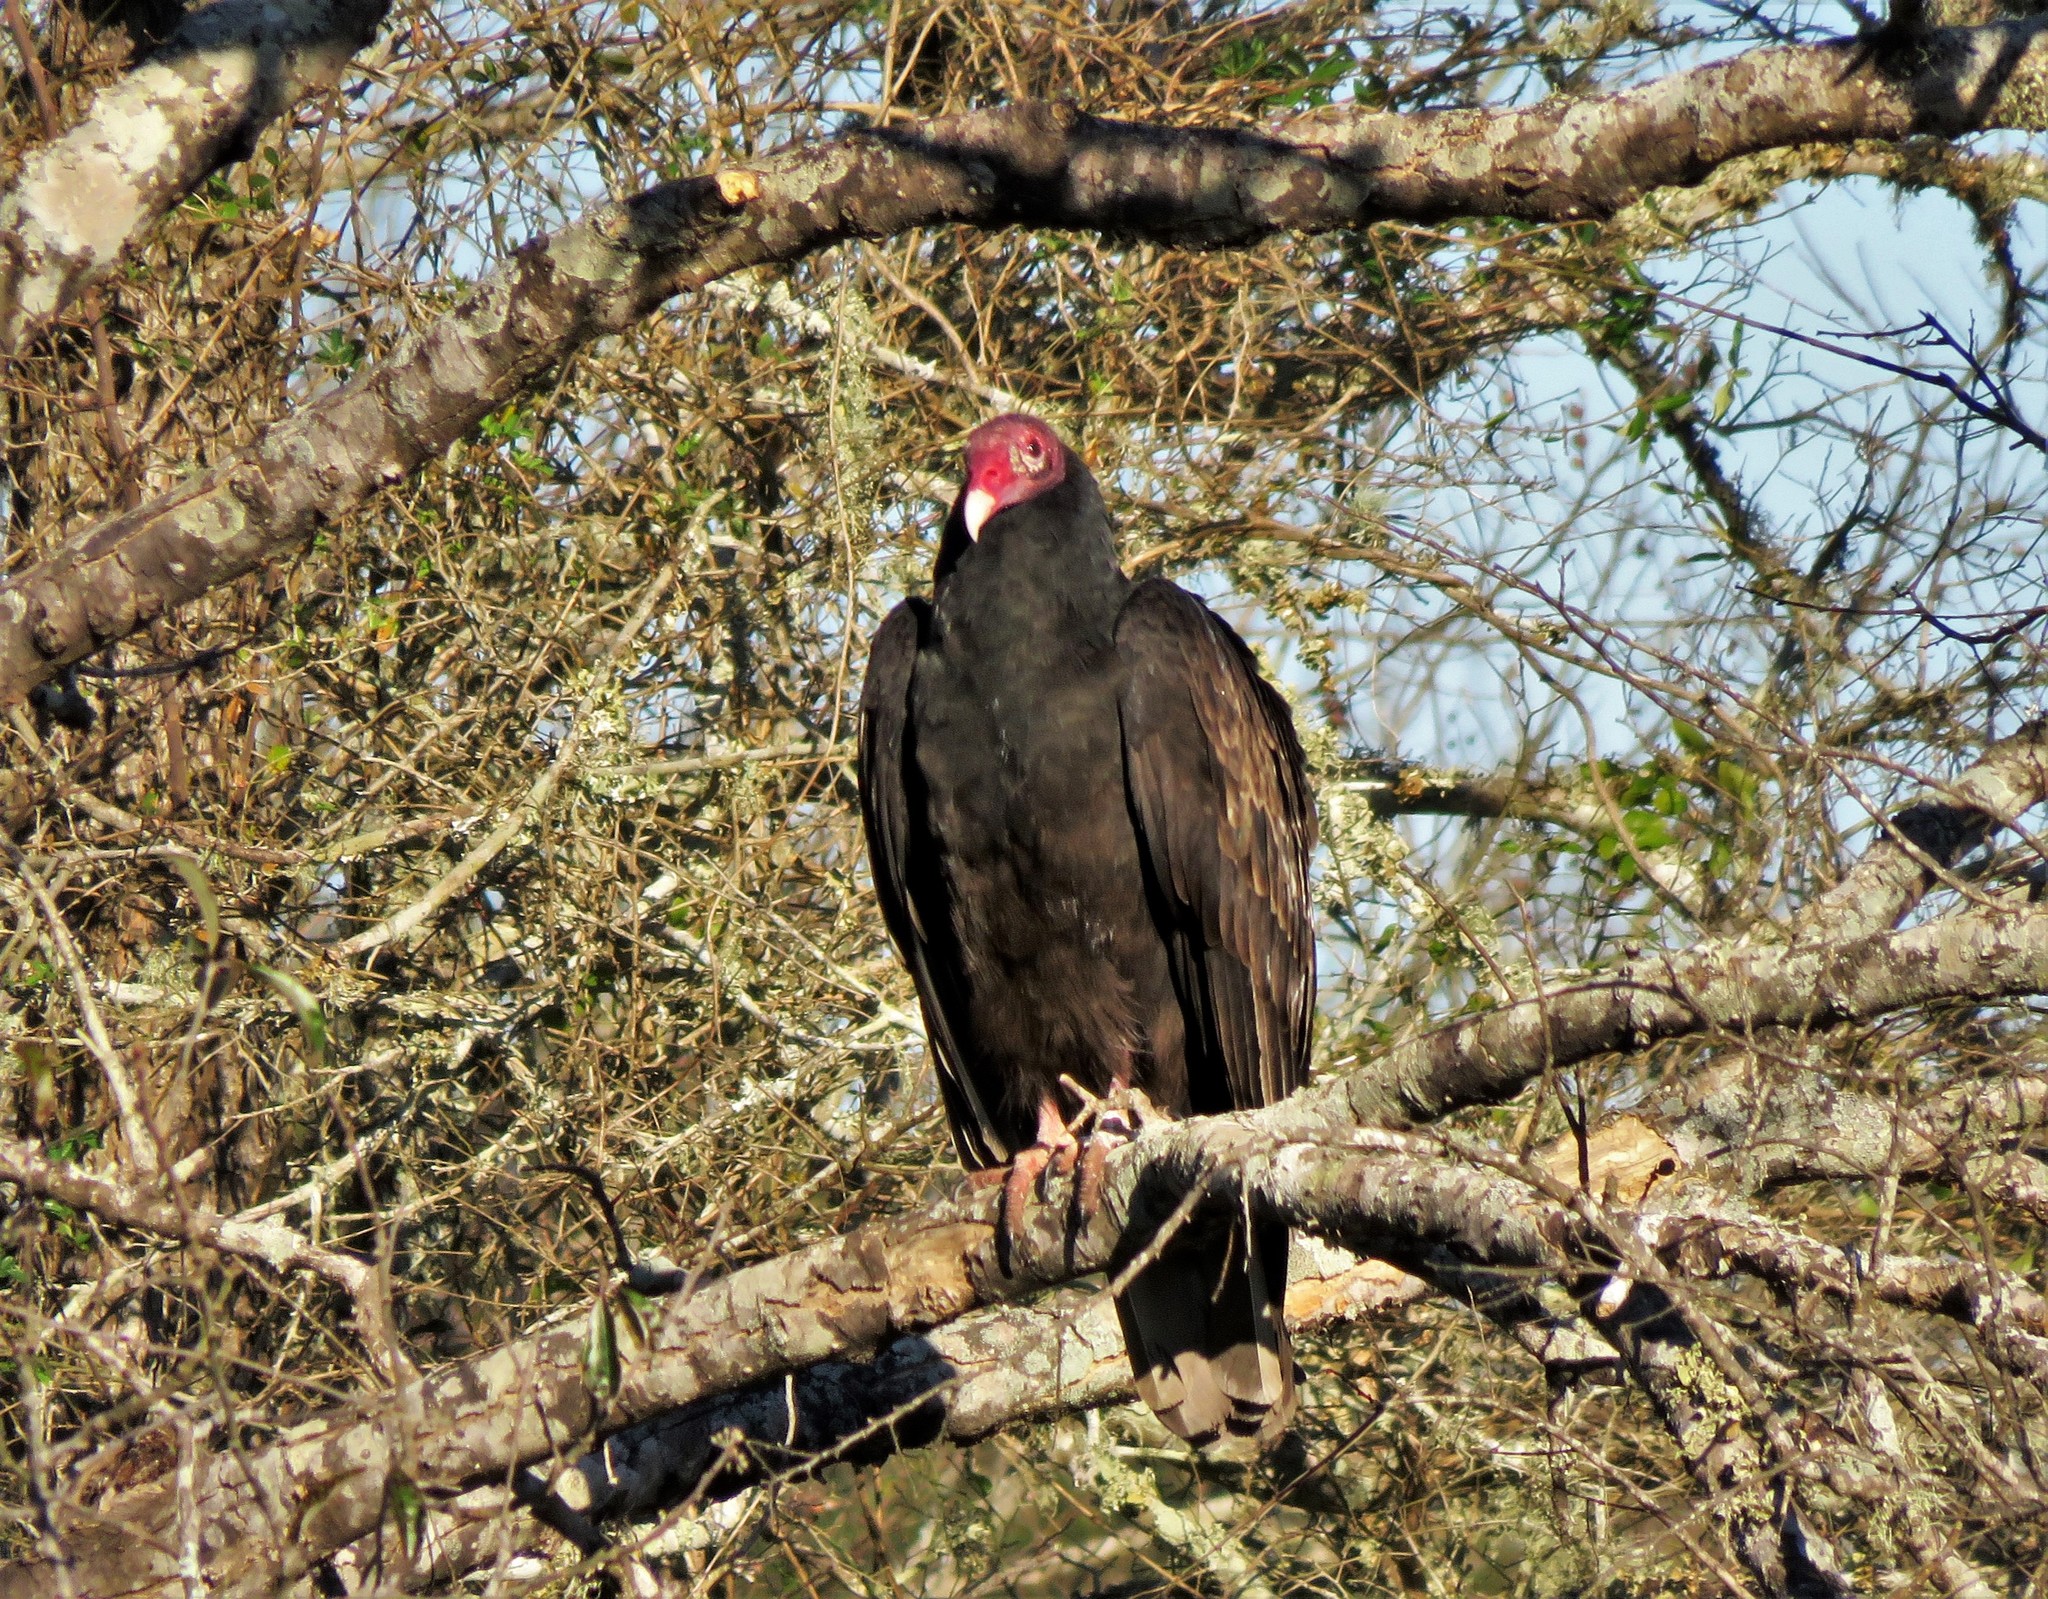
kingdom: Animalia
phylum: Chordata
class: Aves
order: Accipitriformes
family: Cathartidae
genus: Cathartes
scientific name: Cathartes aura
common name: Turkey vulture
